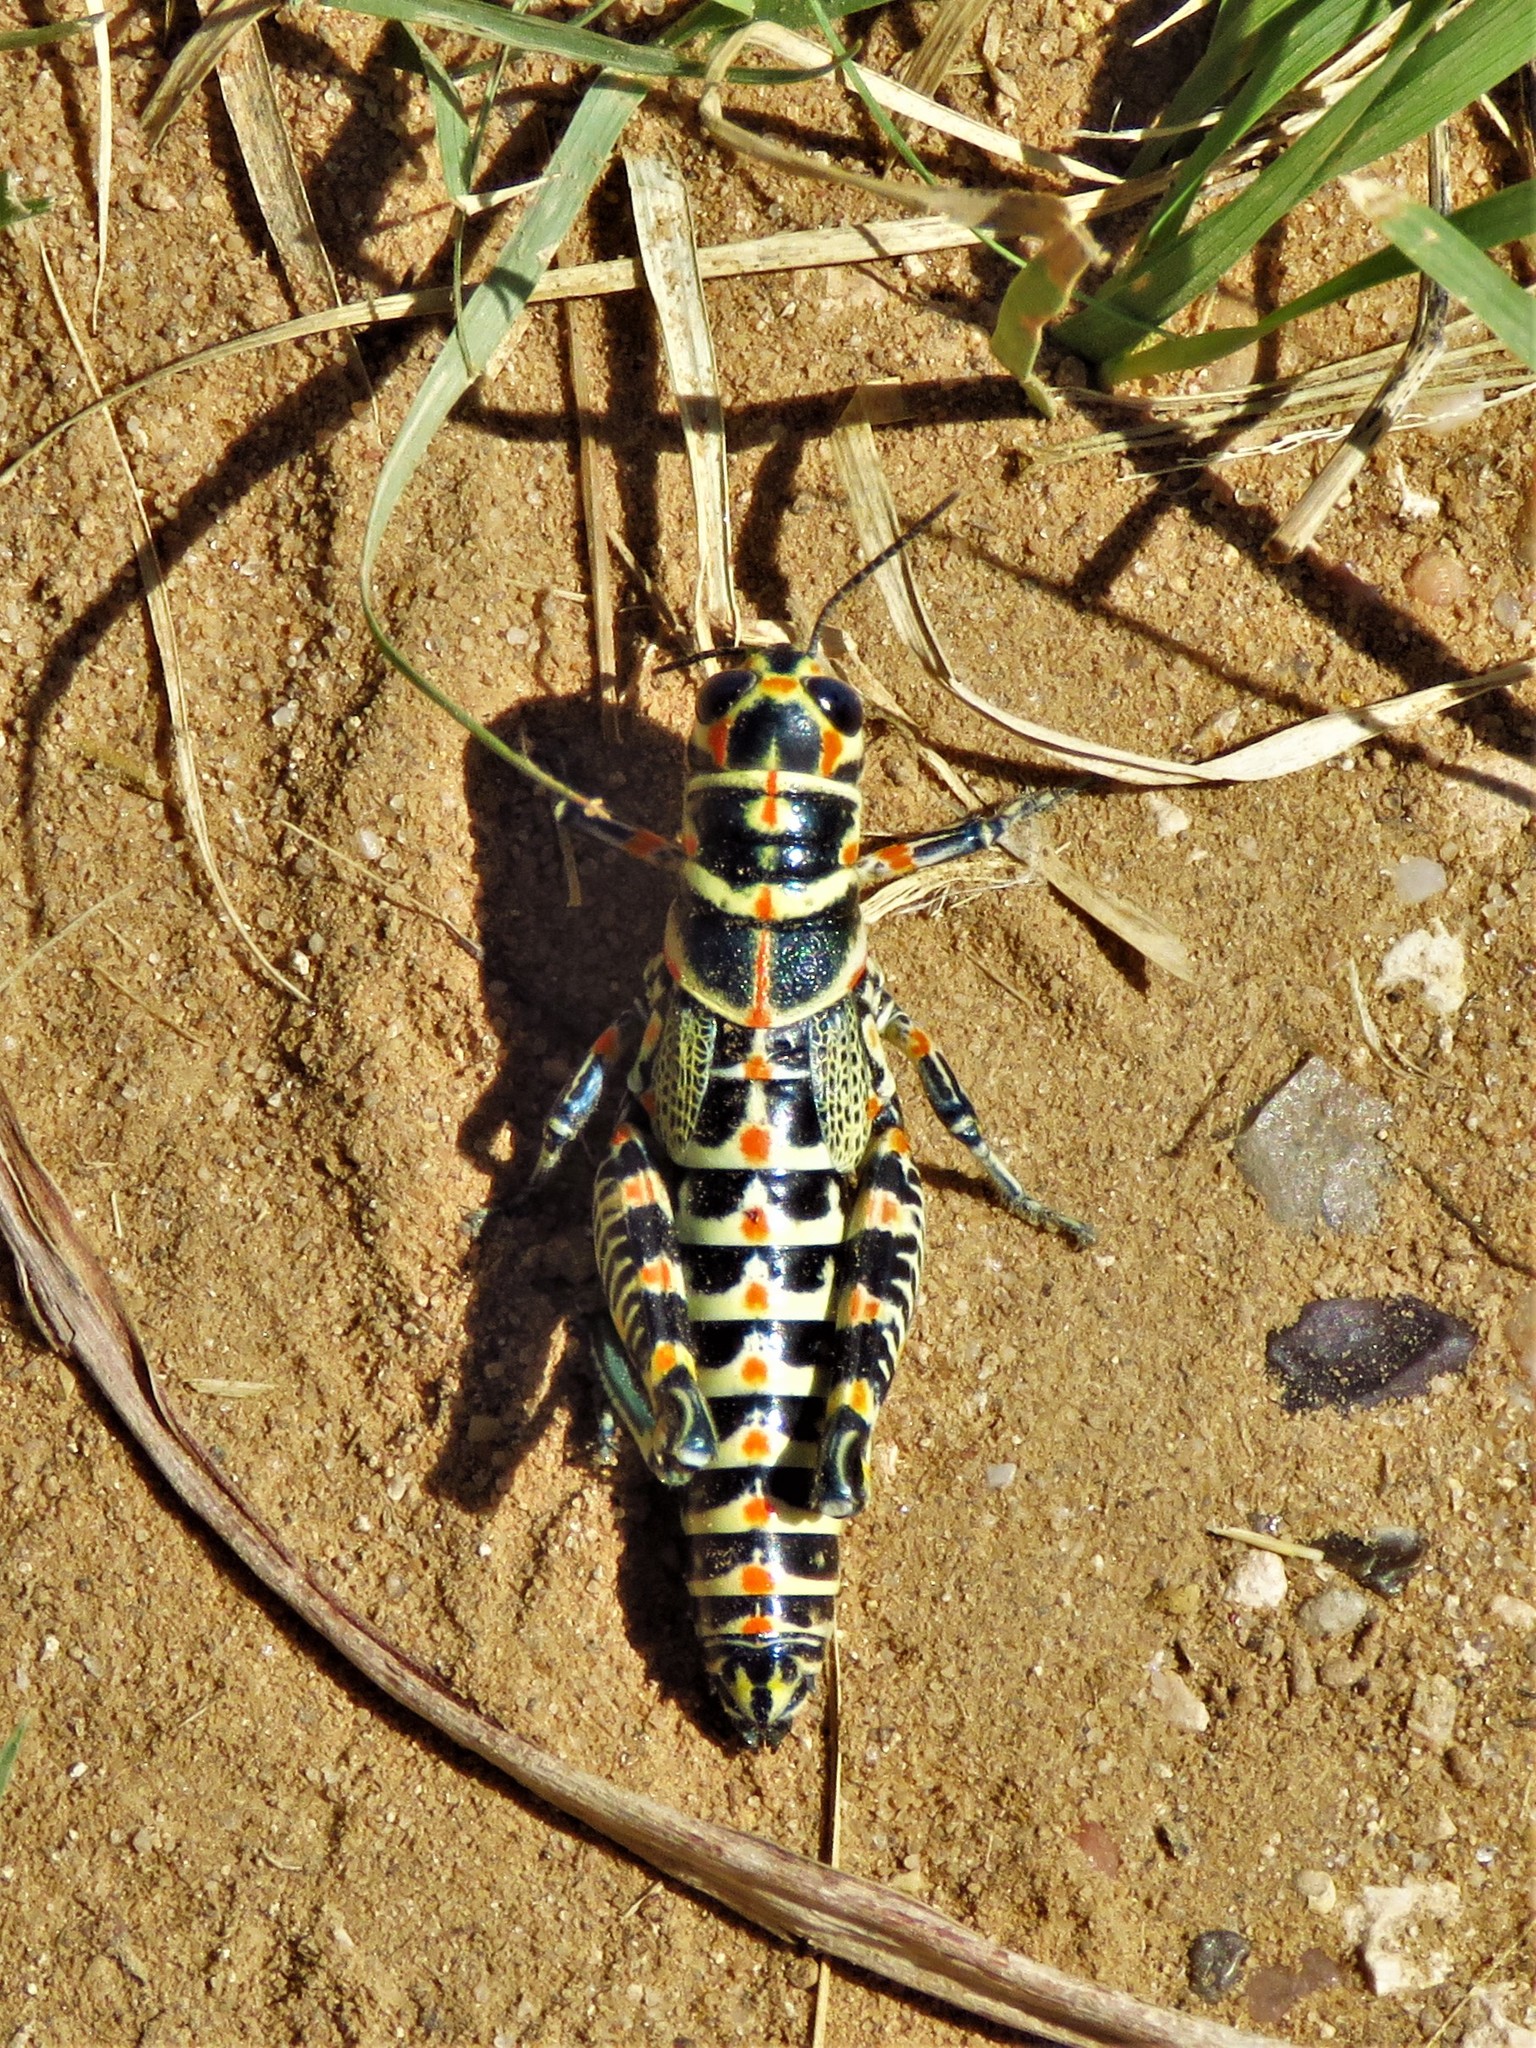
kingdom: Animalia
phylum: Arthropoda
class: Insecta
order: Orthoptera
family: Acrididae
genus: Dactylotum
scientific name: Dactylotum bicolor
